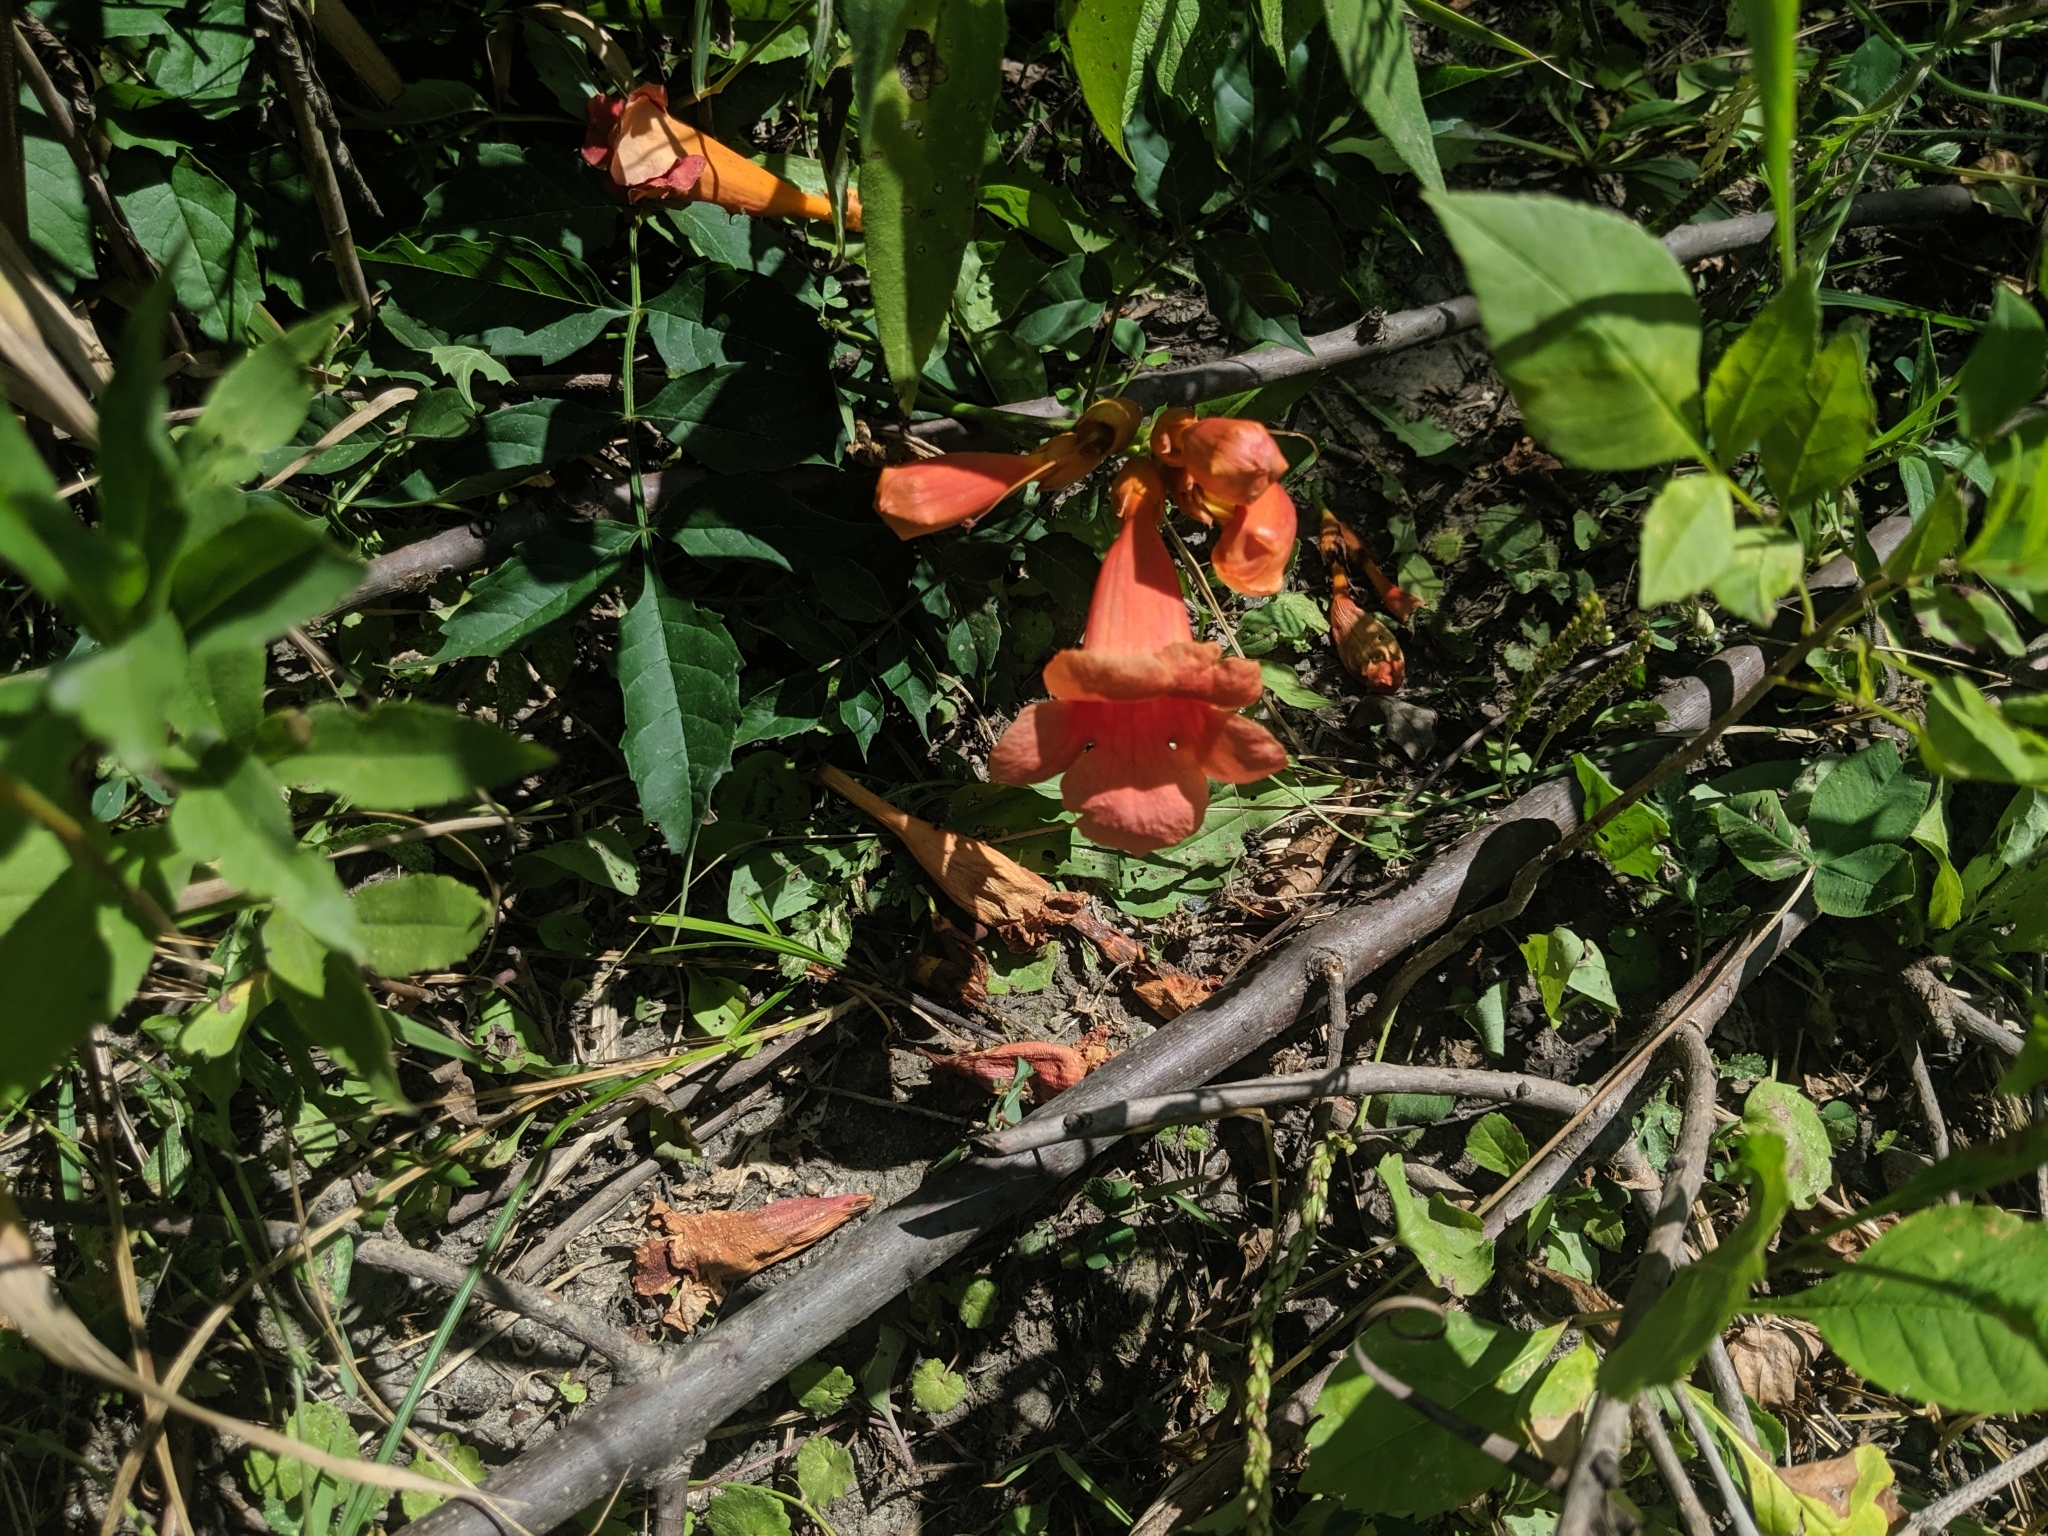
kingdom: Plantae
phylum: Tracheophyta
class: Magnoliopsida
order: Lamiales
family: Bignoniaceae
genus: Campsis
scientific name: Campsis radicans
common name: Trumpet-creeper
